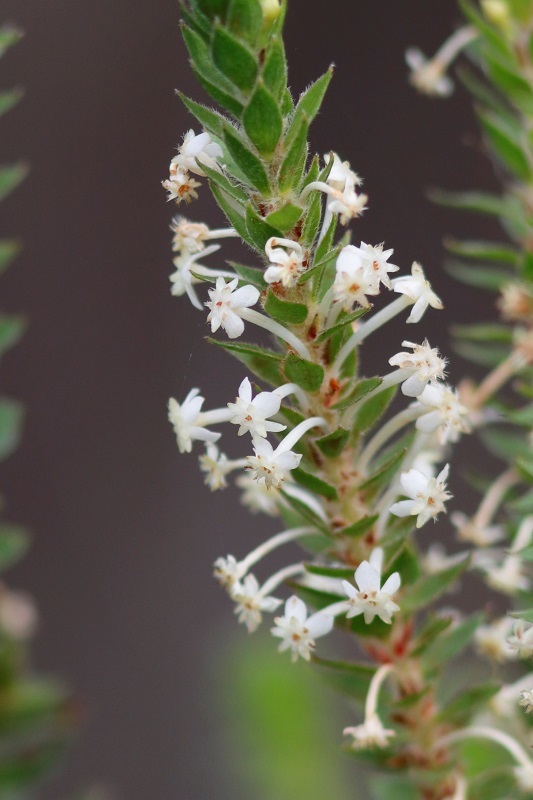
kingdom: Plantae
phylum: Tracheophyta
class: Magnoliopsida
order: Malvales
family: Thymelaeaceae
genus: Struthiola
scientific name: Struthiola hirsuta
